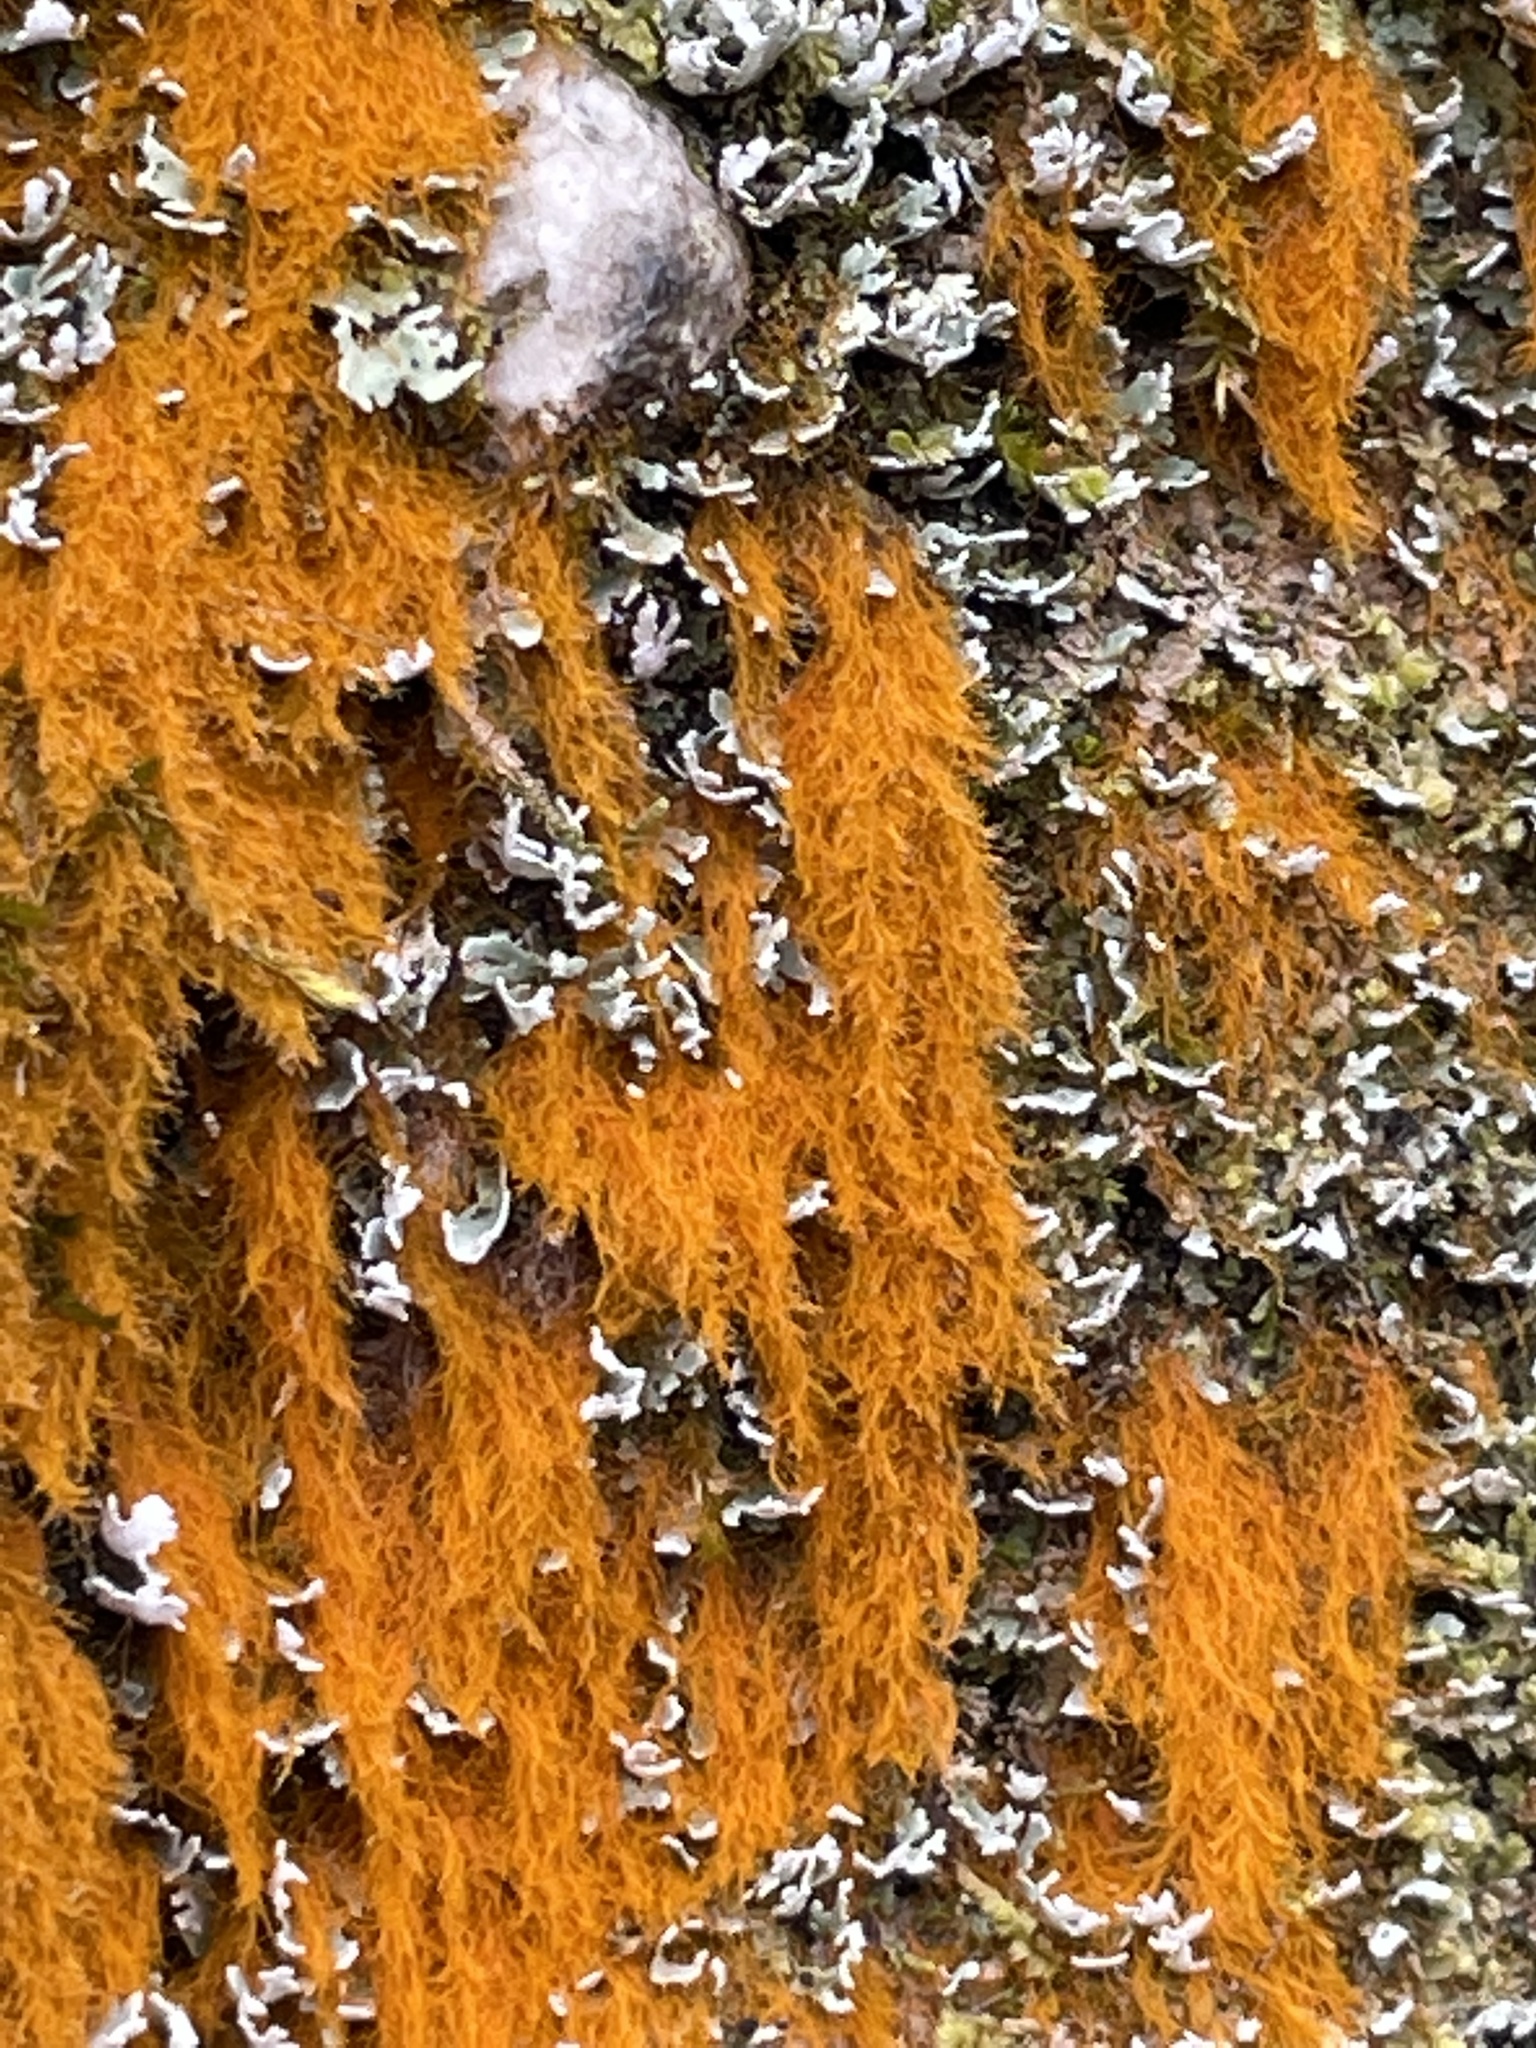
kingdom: Plantae
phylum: Chlorophyta
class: Ulvophyceae
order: Trentepohliales
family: Trentepohliaceae
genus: Trentepohlia
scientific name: Trentepohlia aurea
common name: Orange rock hair
